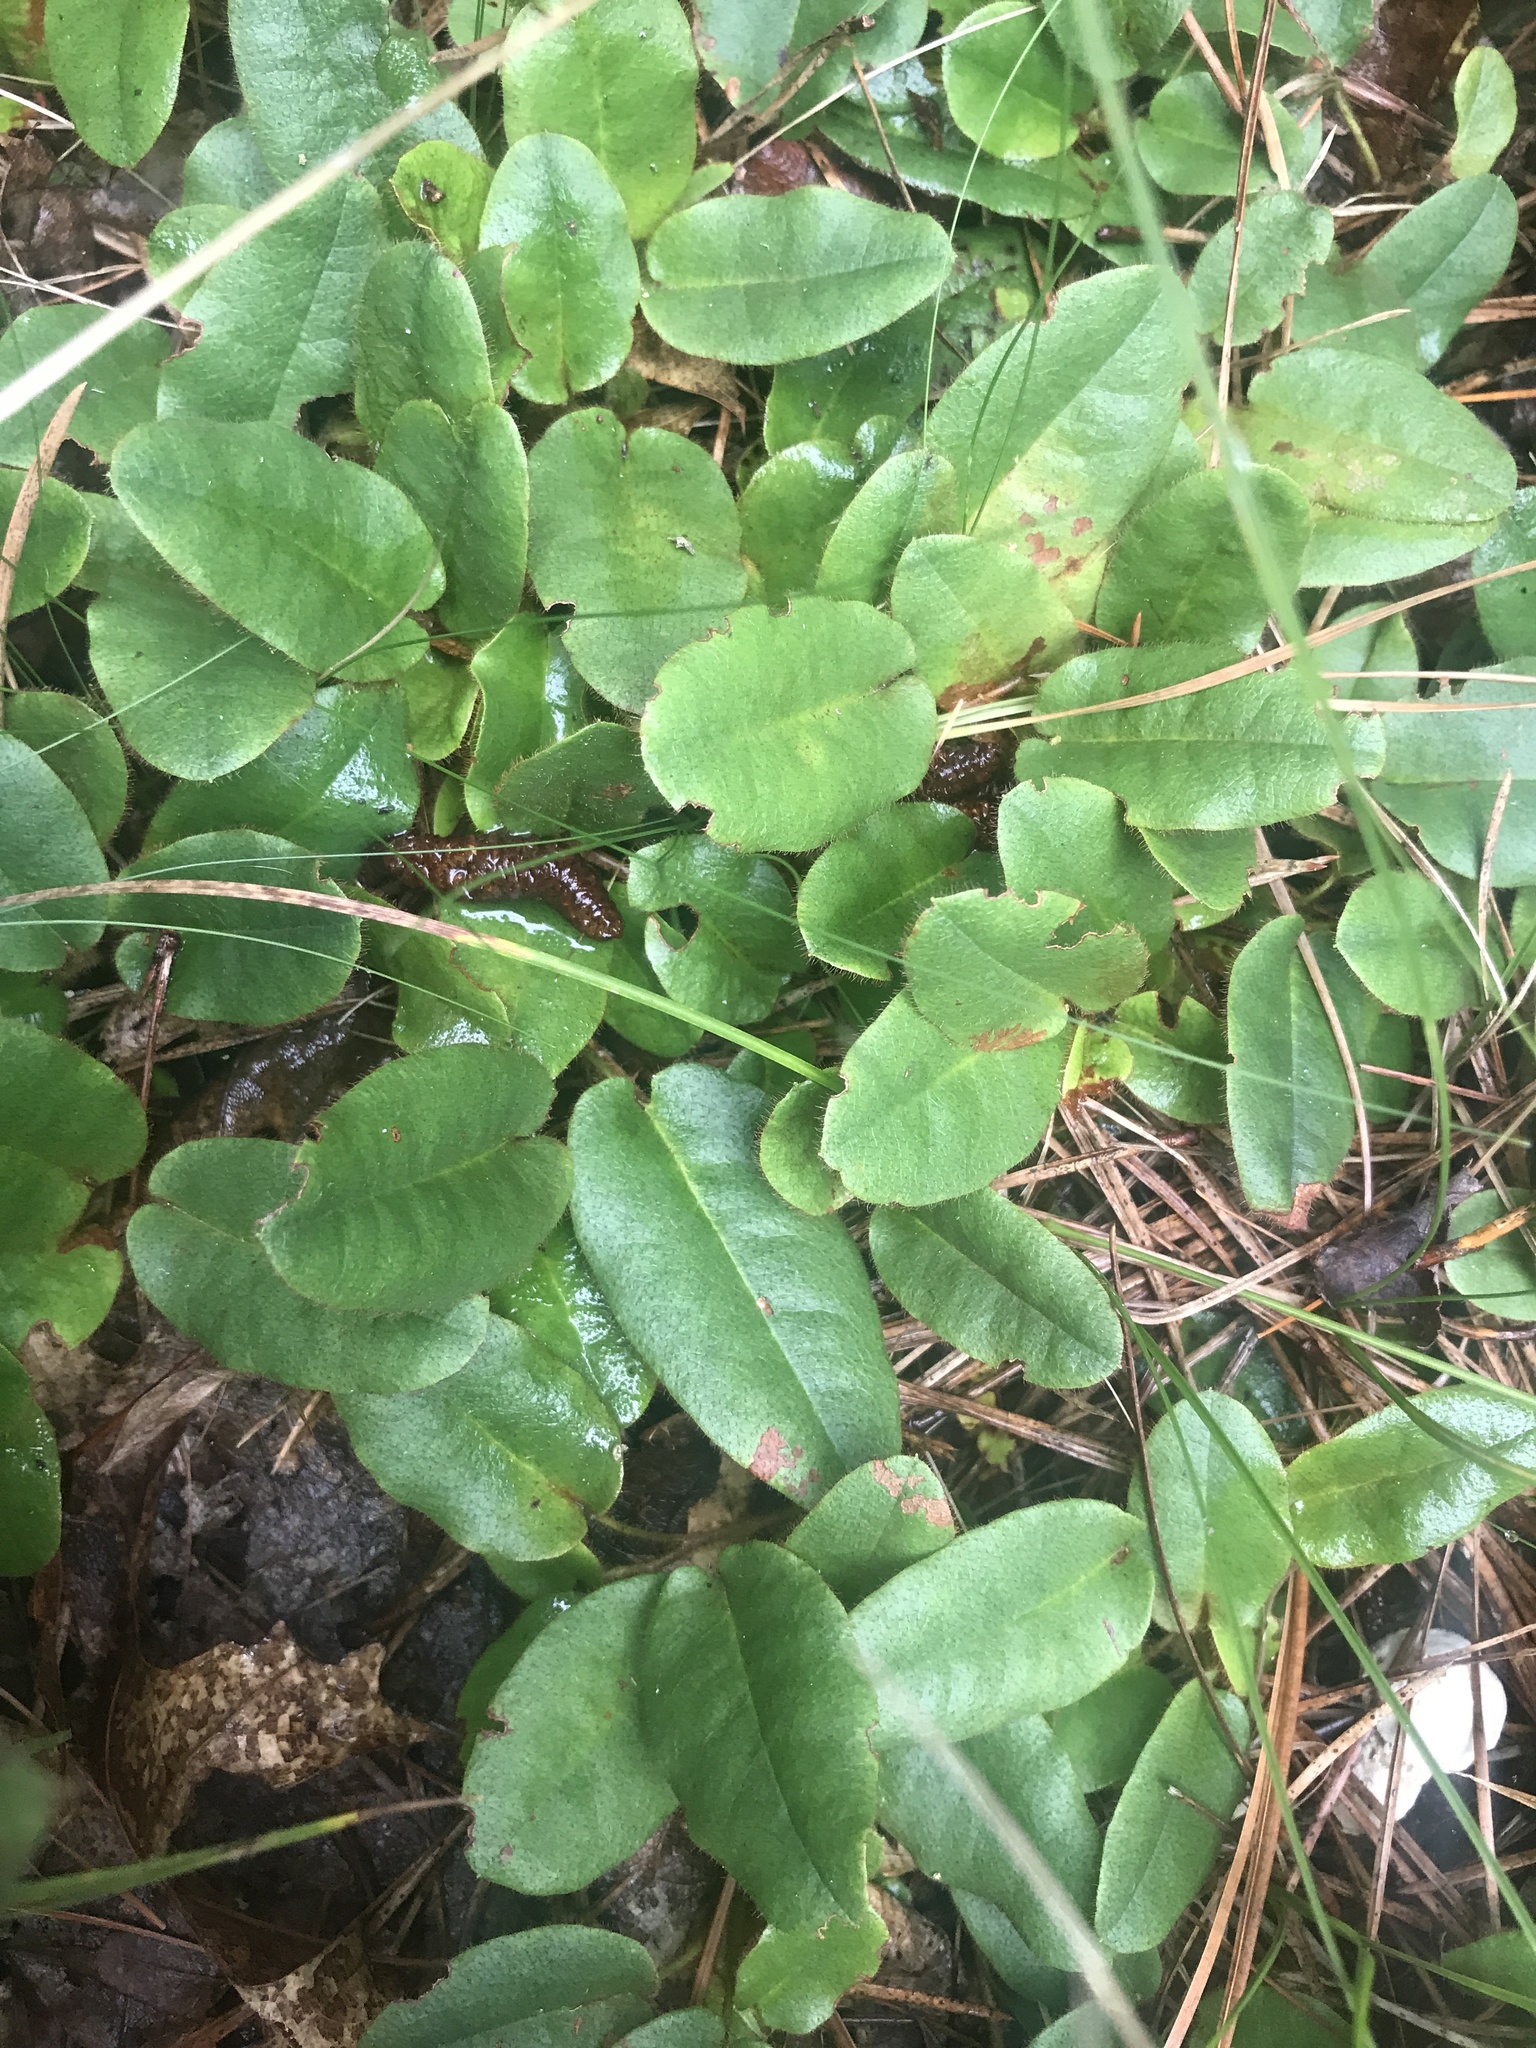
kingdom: Plantae
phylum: Tracheophyta
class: Magnoliopsida
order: Ericales
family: Ericaceae
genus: Epigaea
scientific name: Epigaea repens
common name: Gravelroot
